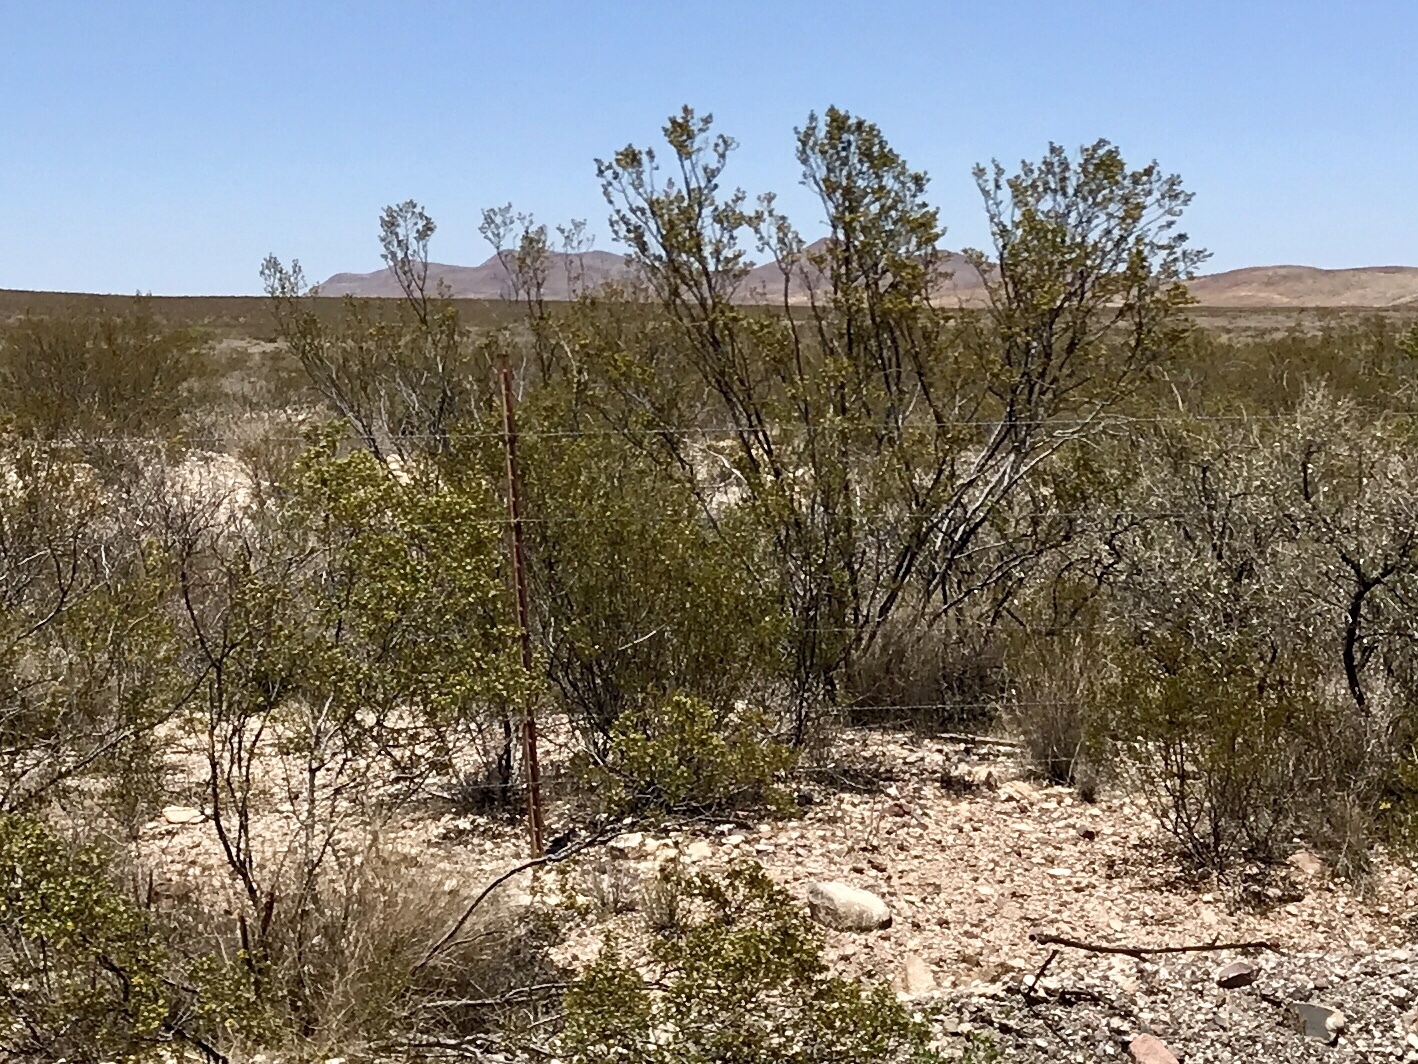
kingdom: Plantae
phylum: Tracheophyta
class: Magnoliopsida
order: Zygophyllales
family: Zygophyllaceae
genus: Larrea
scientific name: Larrea tridentata
